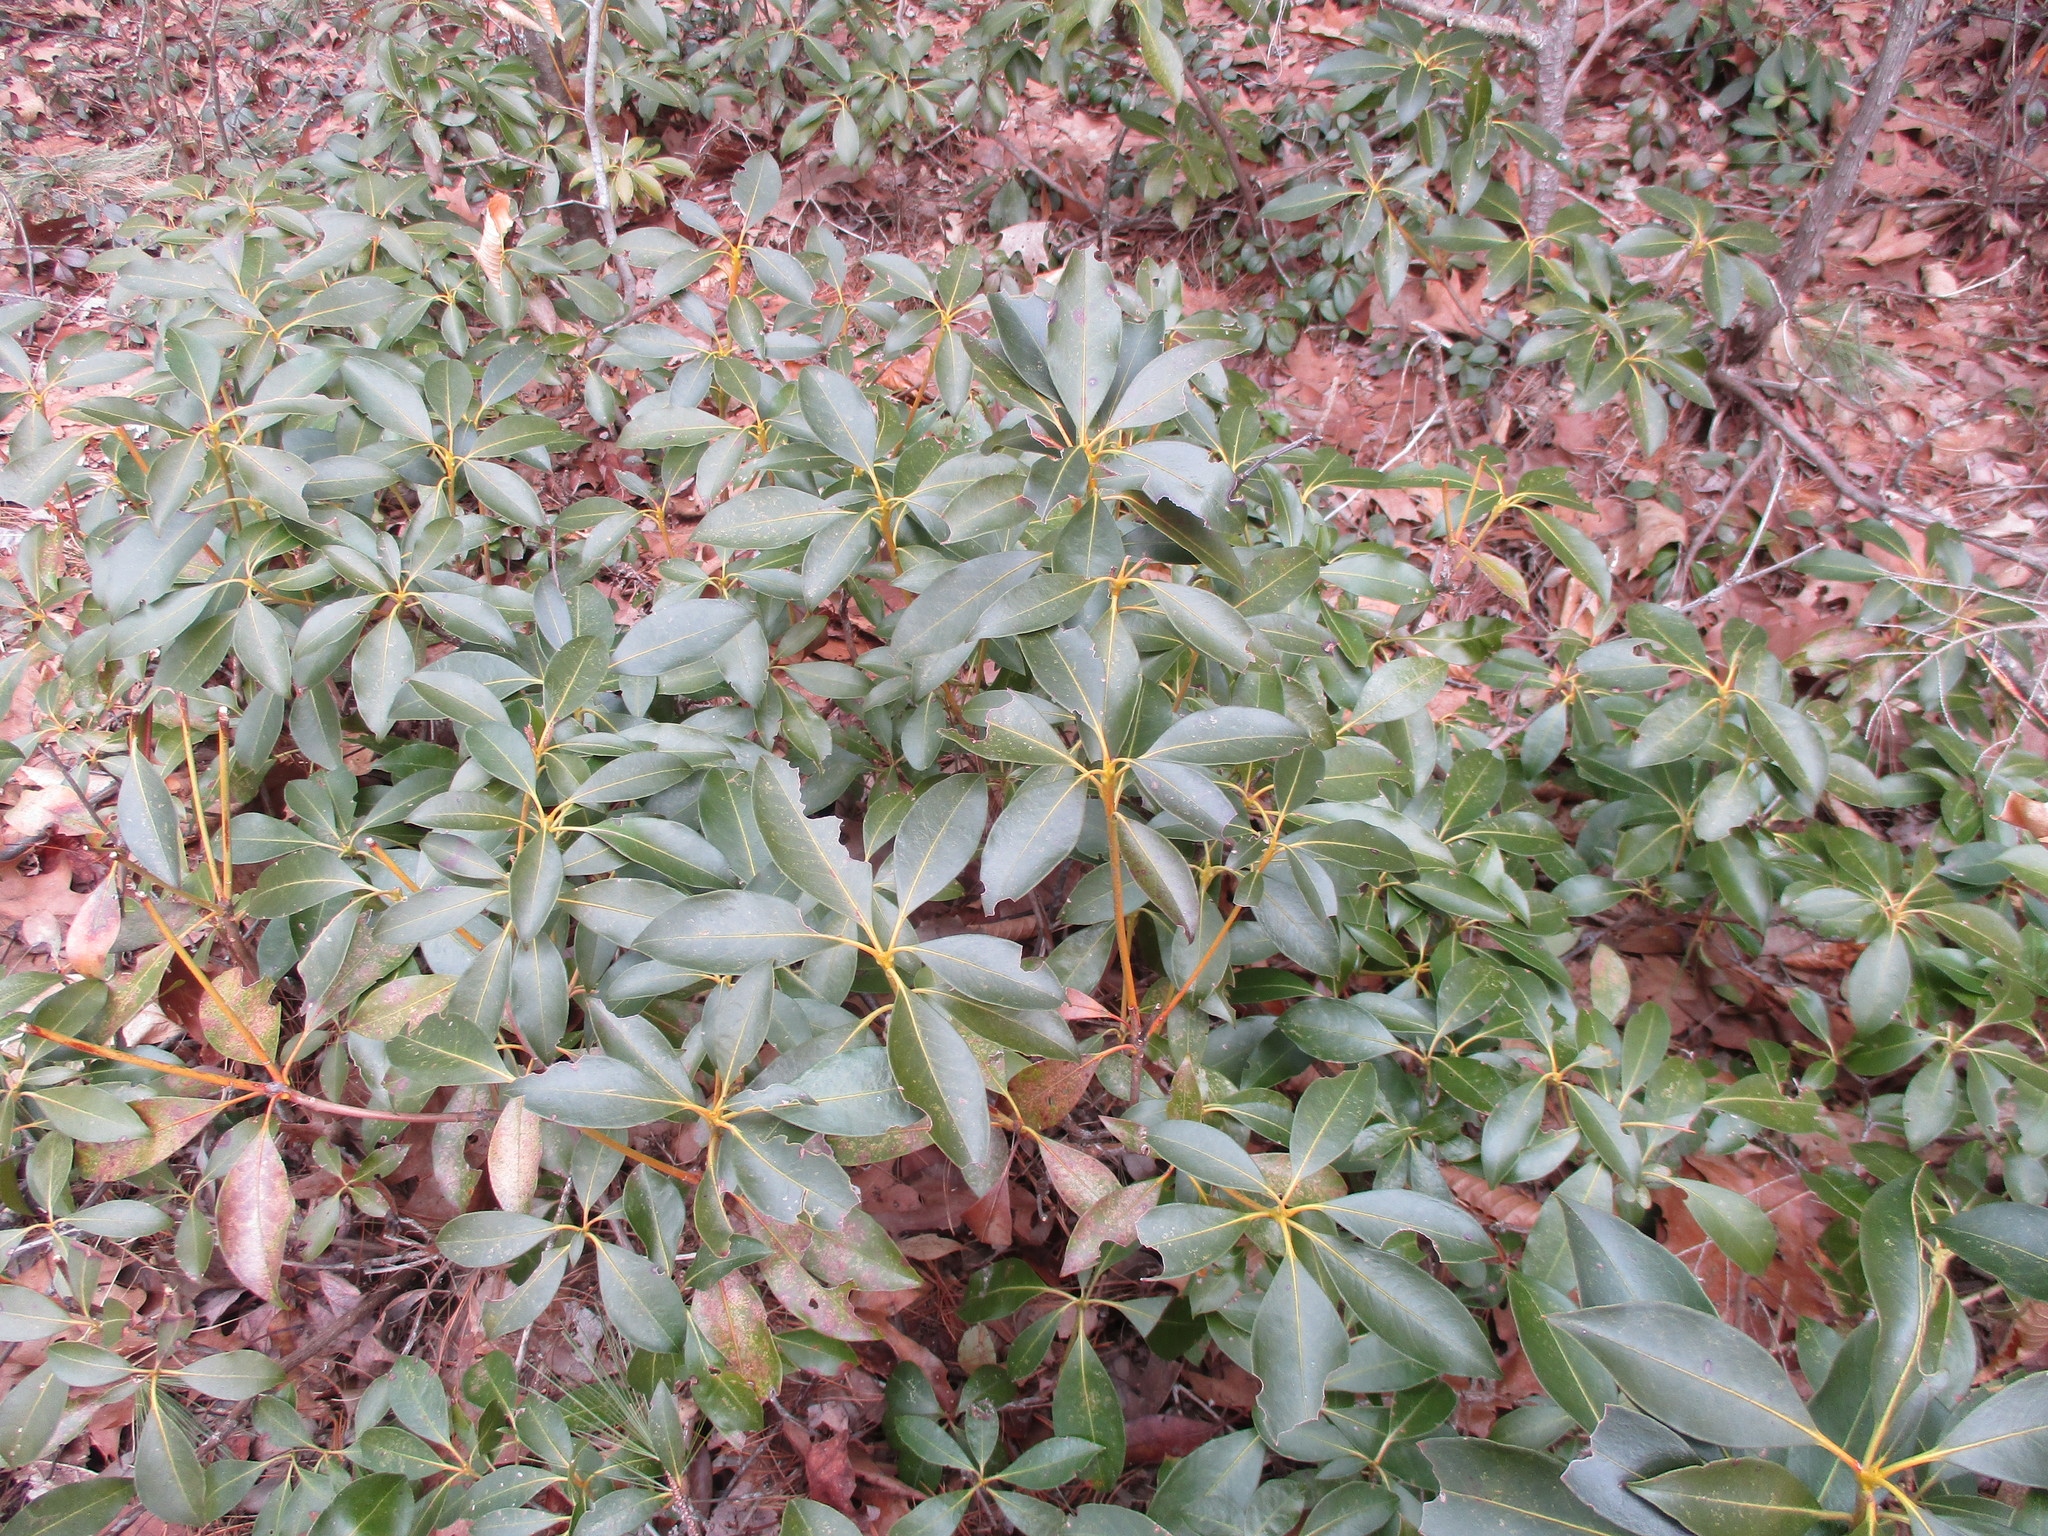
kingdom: Plantae
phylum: Tracheophyta
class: Magnoliopsida
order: Ericales
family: Ericaceae
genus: Kalmia
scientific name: Kalmia latifolia
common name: Mountain-laurel
